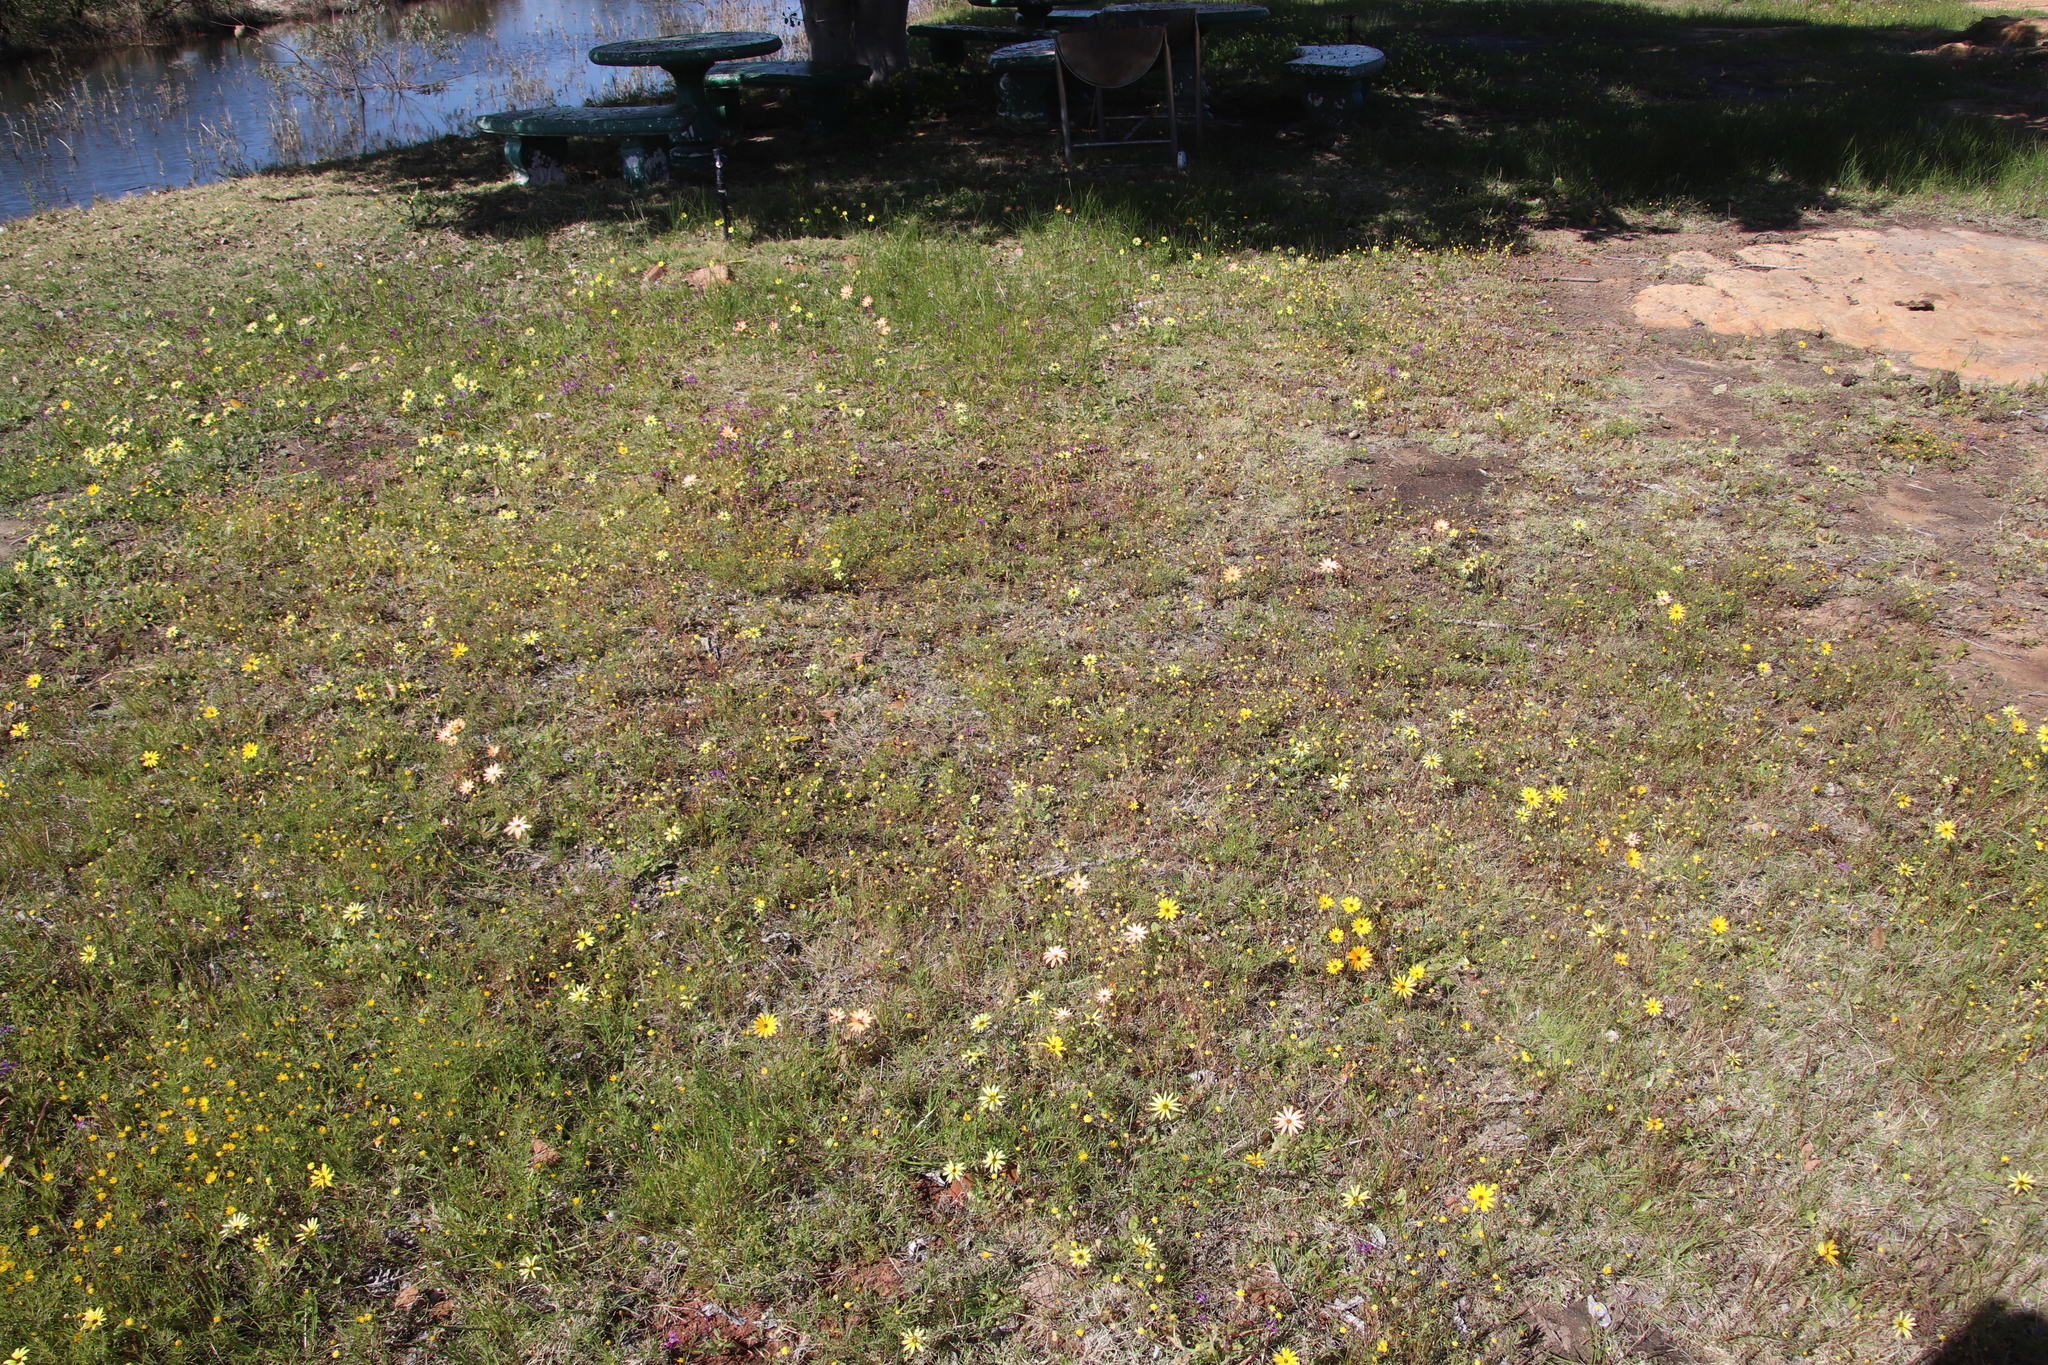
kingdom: Plantae
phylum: Tracheophyta
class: Magnoliopsida
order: Asterales
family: Asteraceae
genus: Cotula
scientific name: Cotula pruinosa
